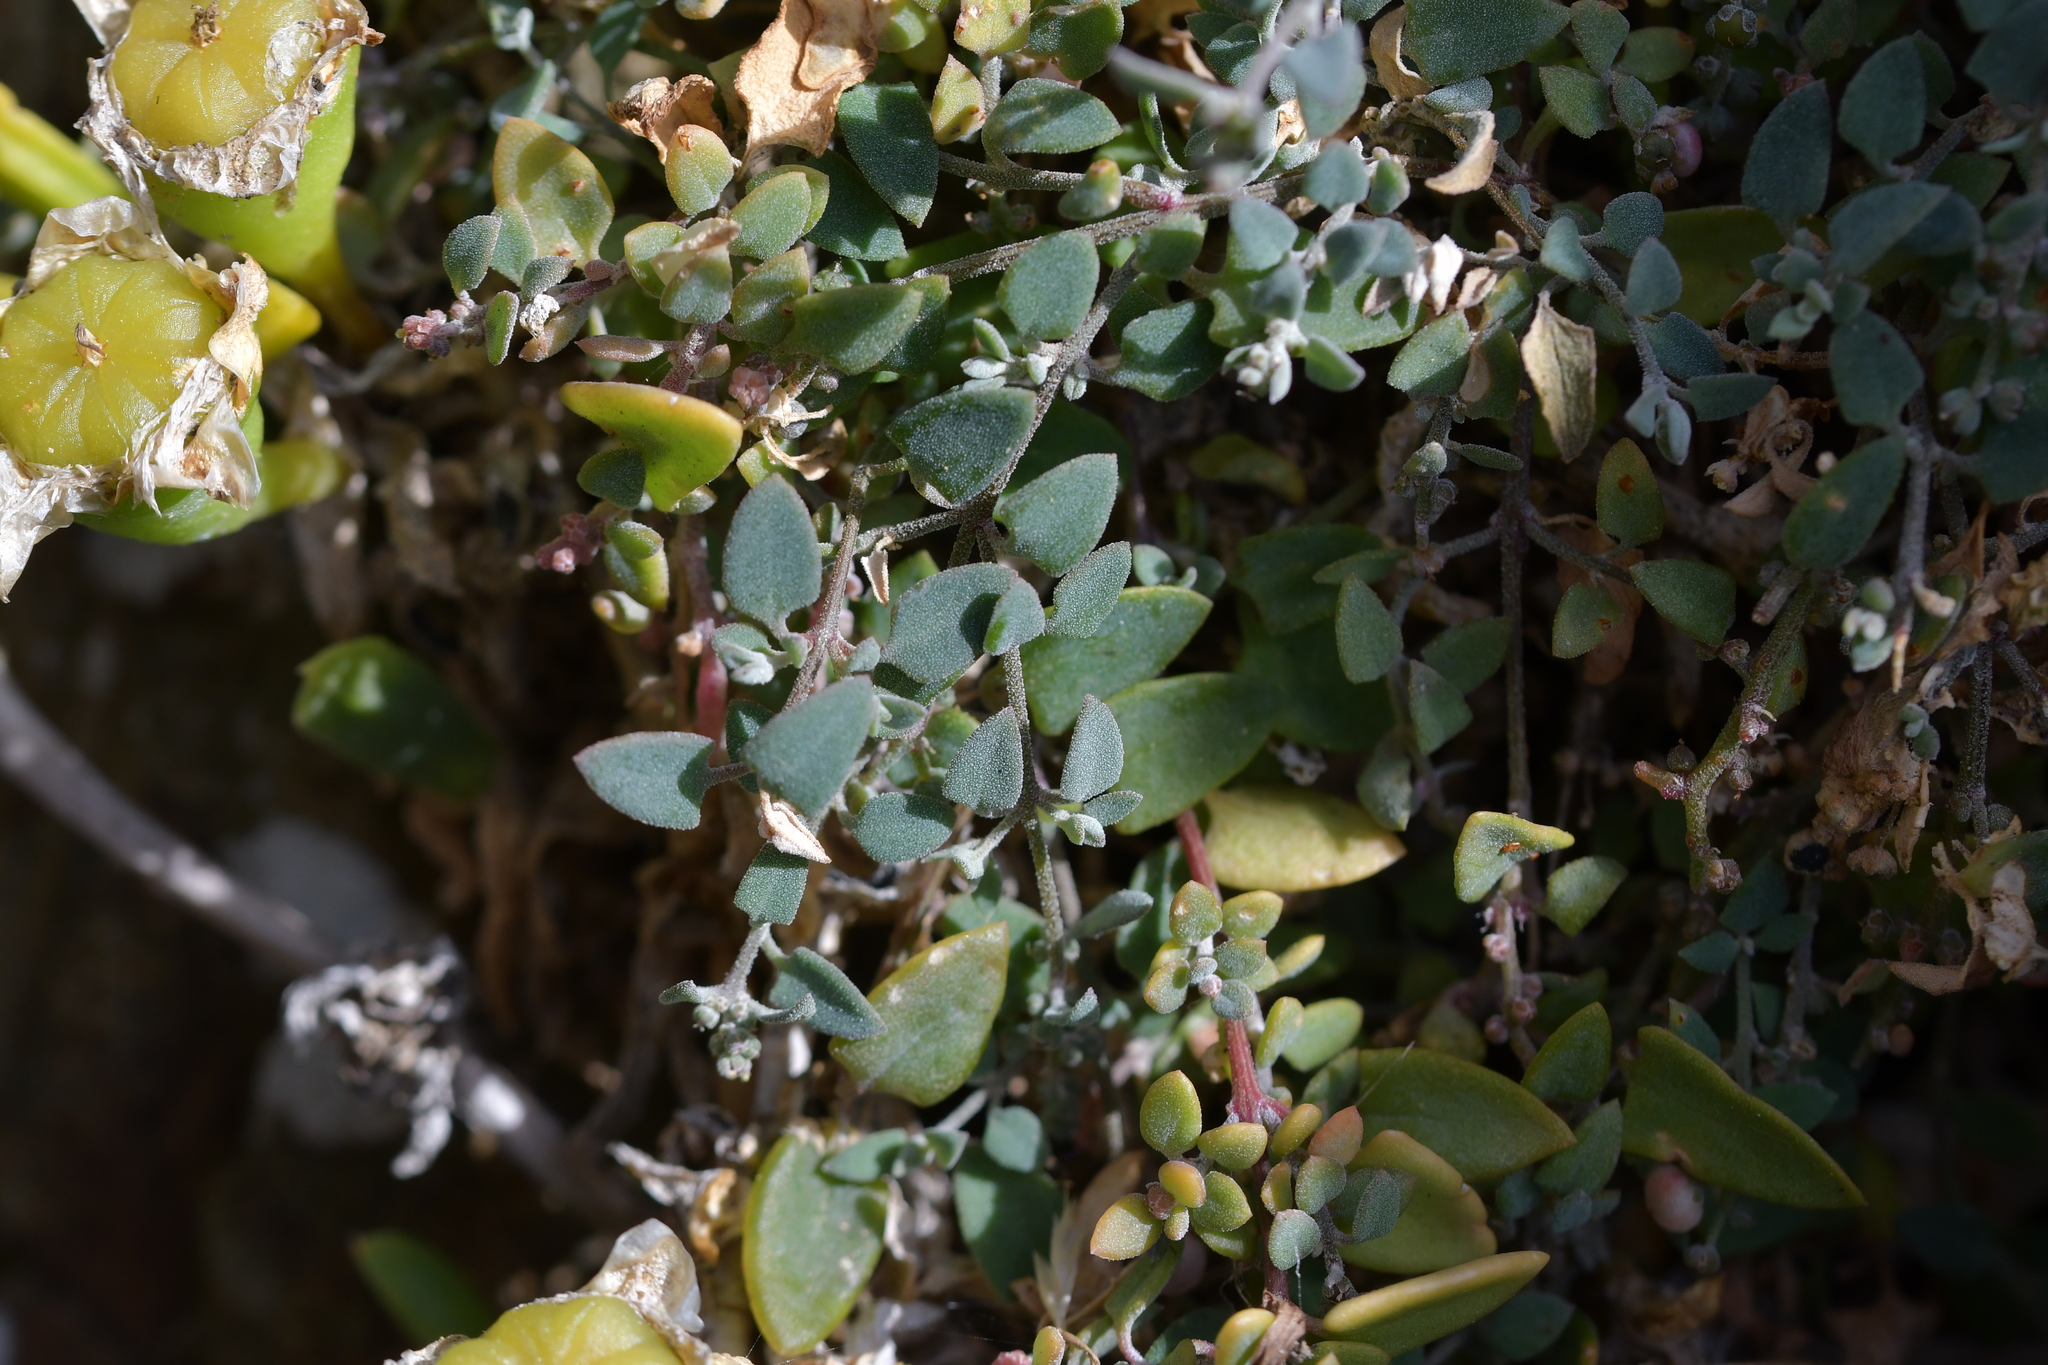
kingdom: Plantae
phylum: Tracheophyta
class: Magnoliopsida
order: Caryophyllales
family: Amaranthaceae
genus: Chenopodium
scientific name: Chenopodium triandrum
